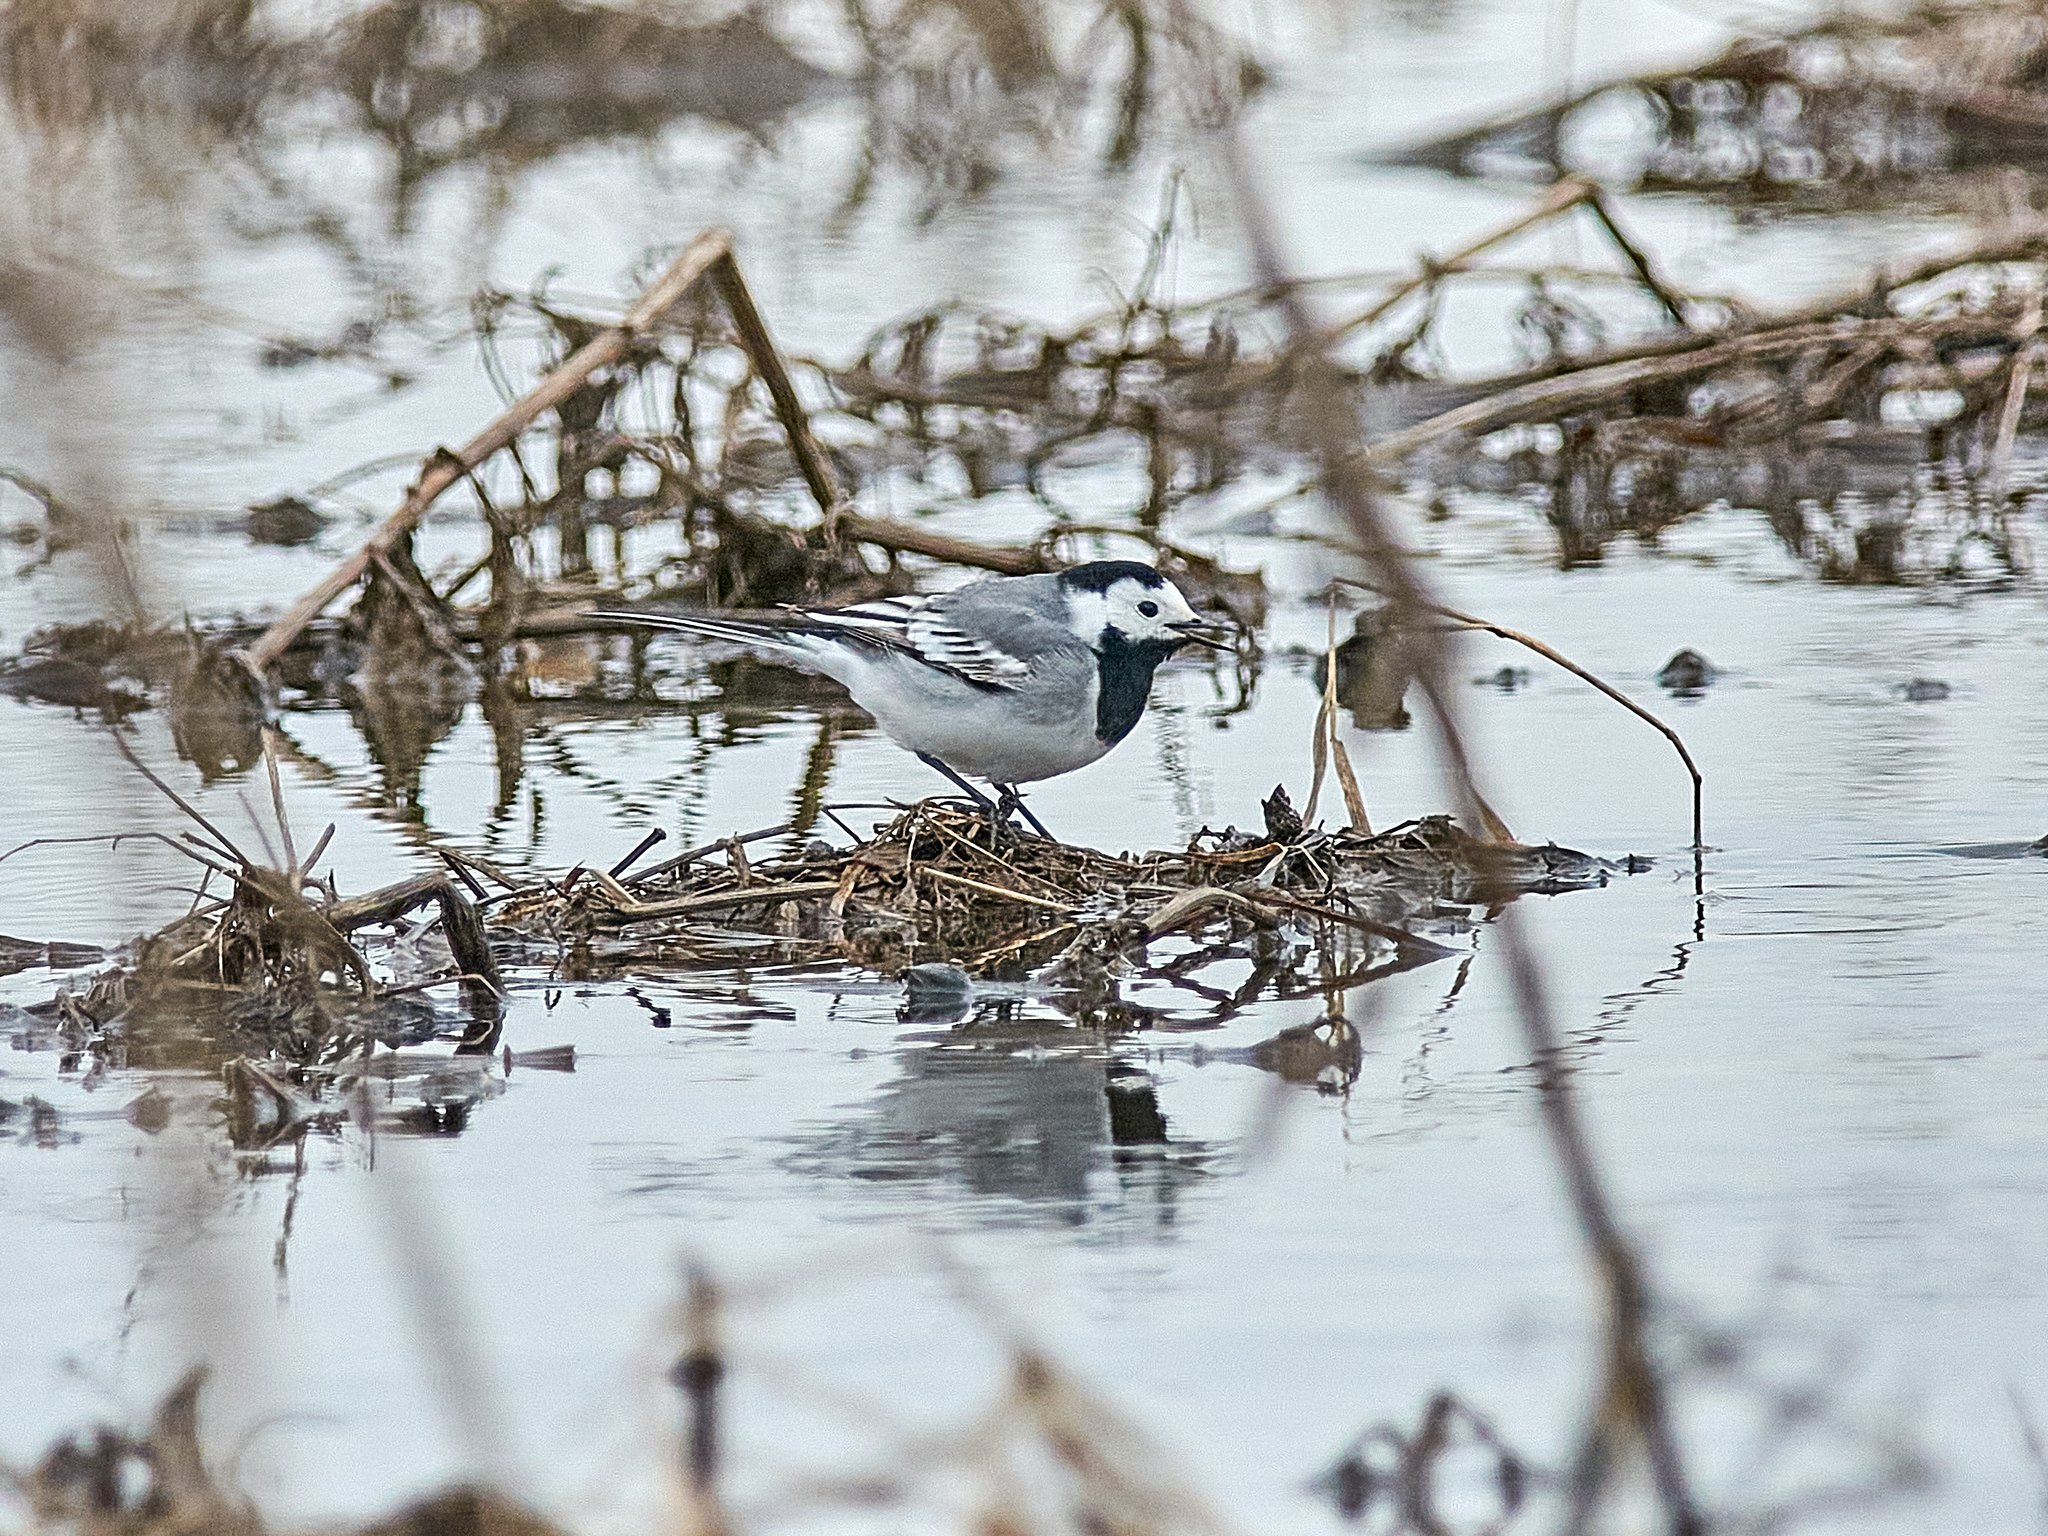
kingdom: Animalia
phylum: Chordata
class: Aves
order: Passeriformes
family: Motacillidae
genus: Motacilla
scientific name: Motacilla alba
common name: White wagtail
